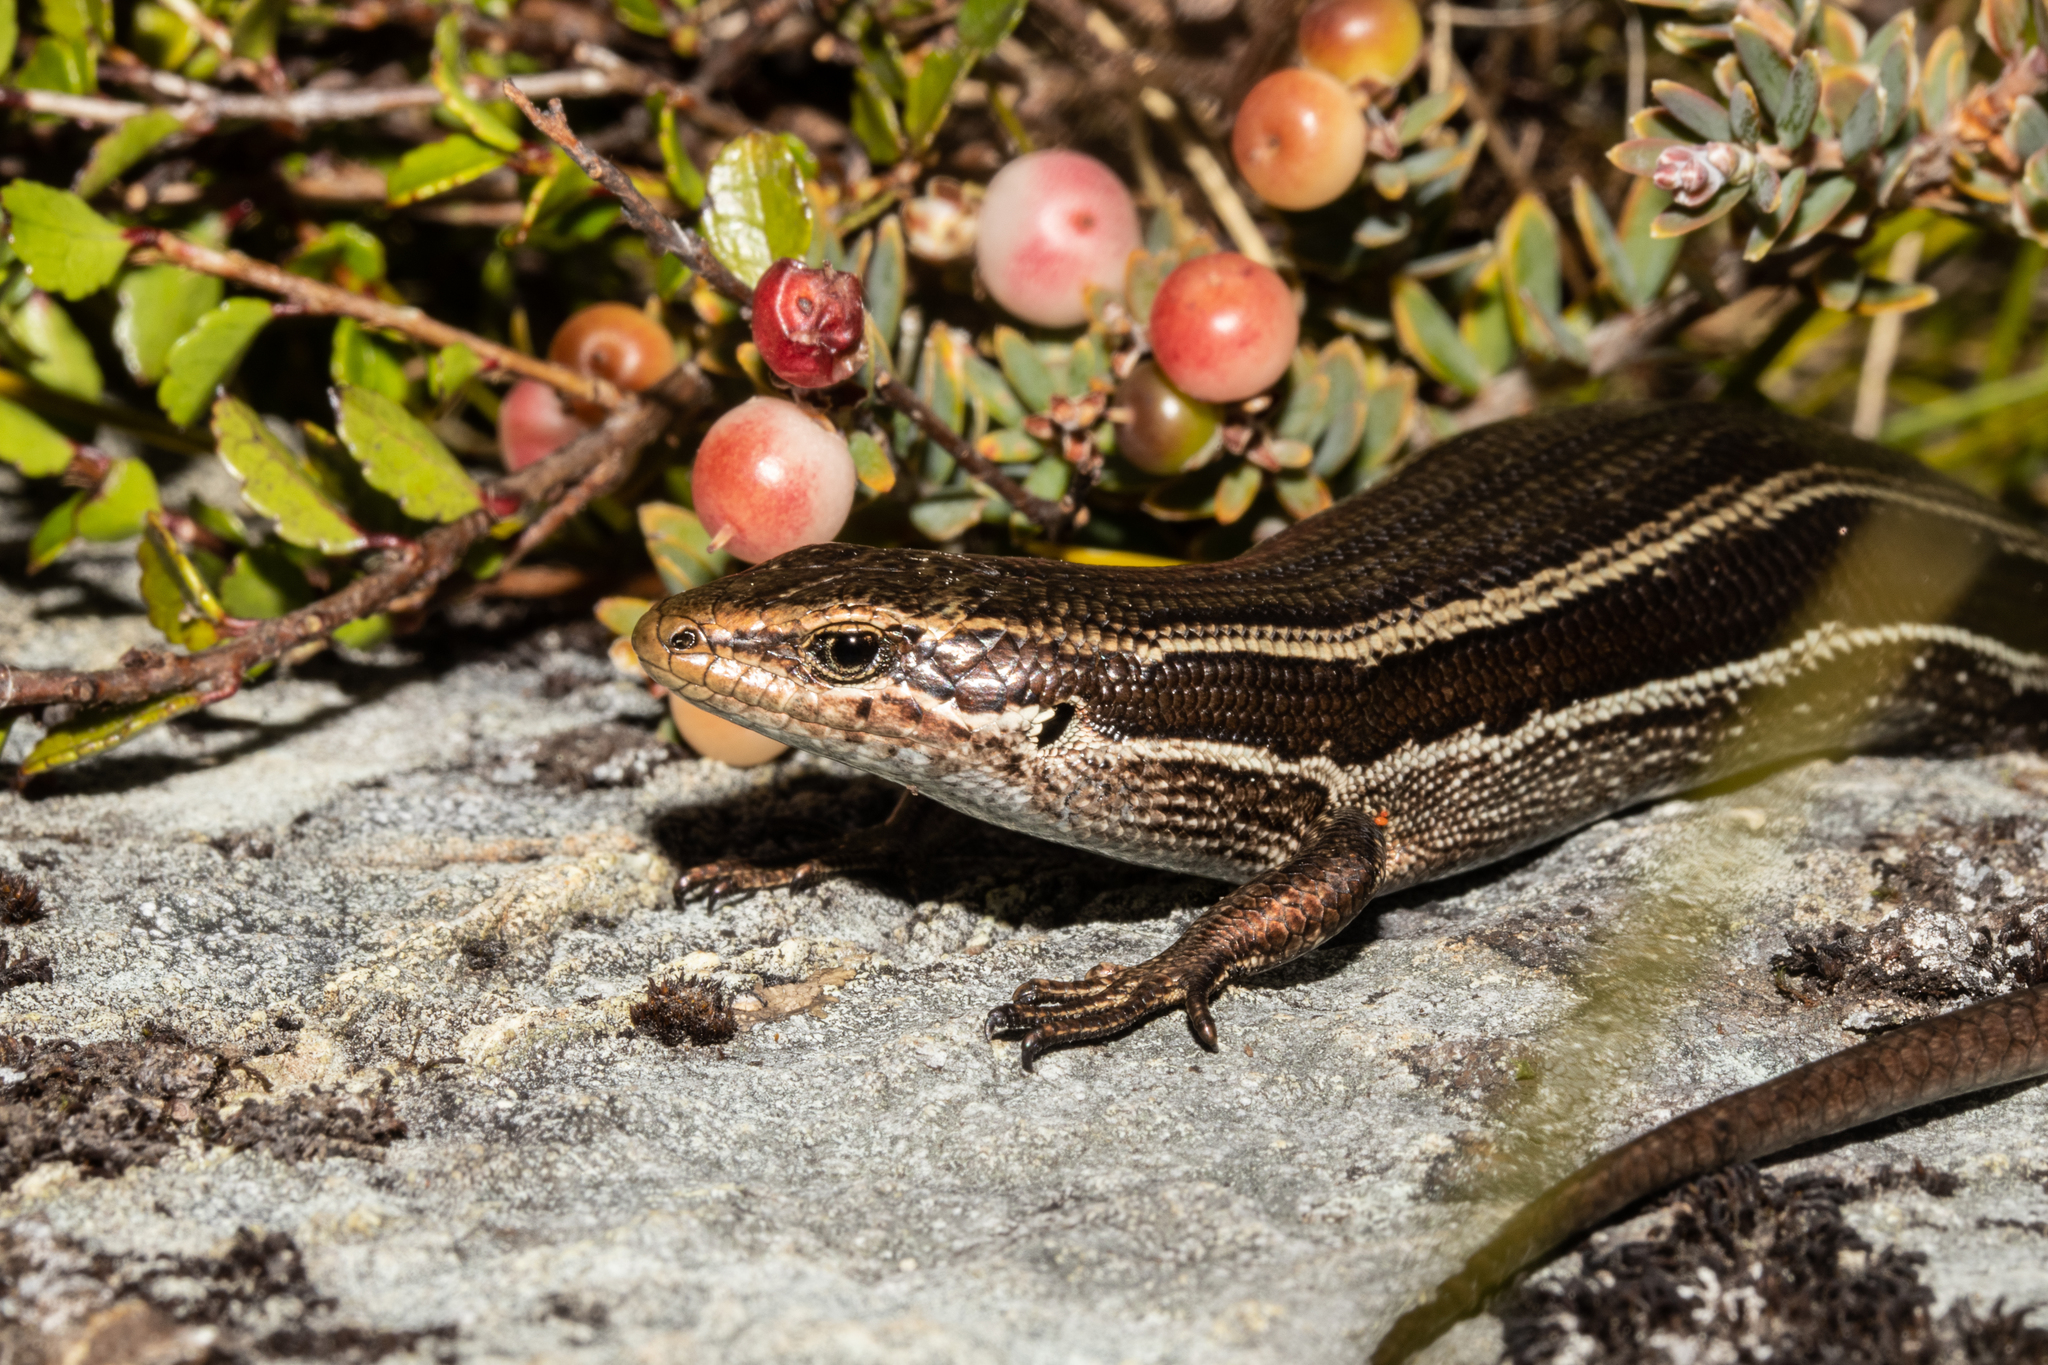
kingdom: Animalia
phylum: Chordata
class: Squamata
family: Scincidae
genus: Oligosoma
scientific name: Oligosoma kahurangi
